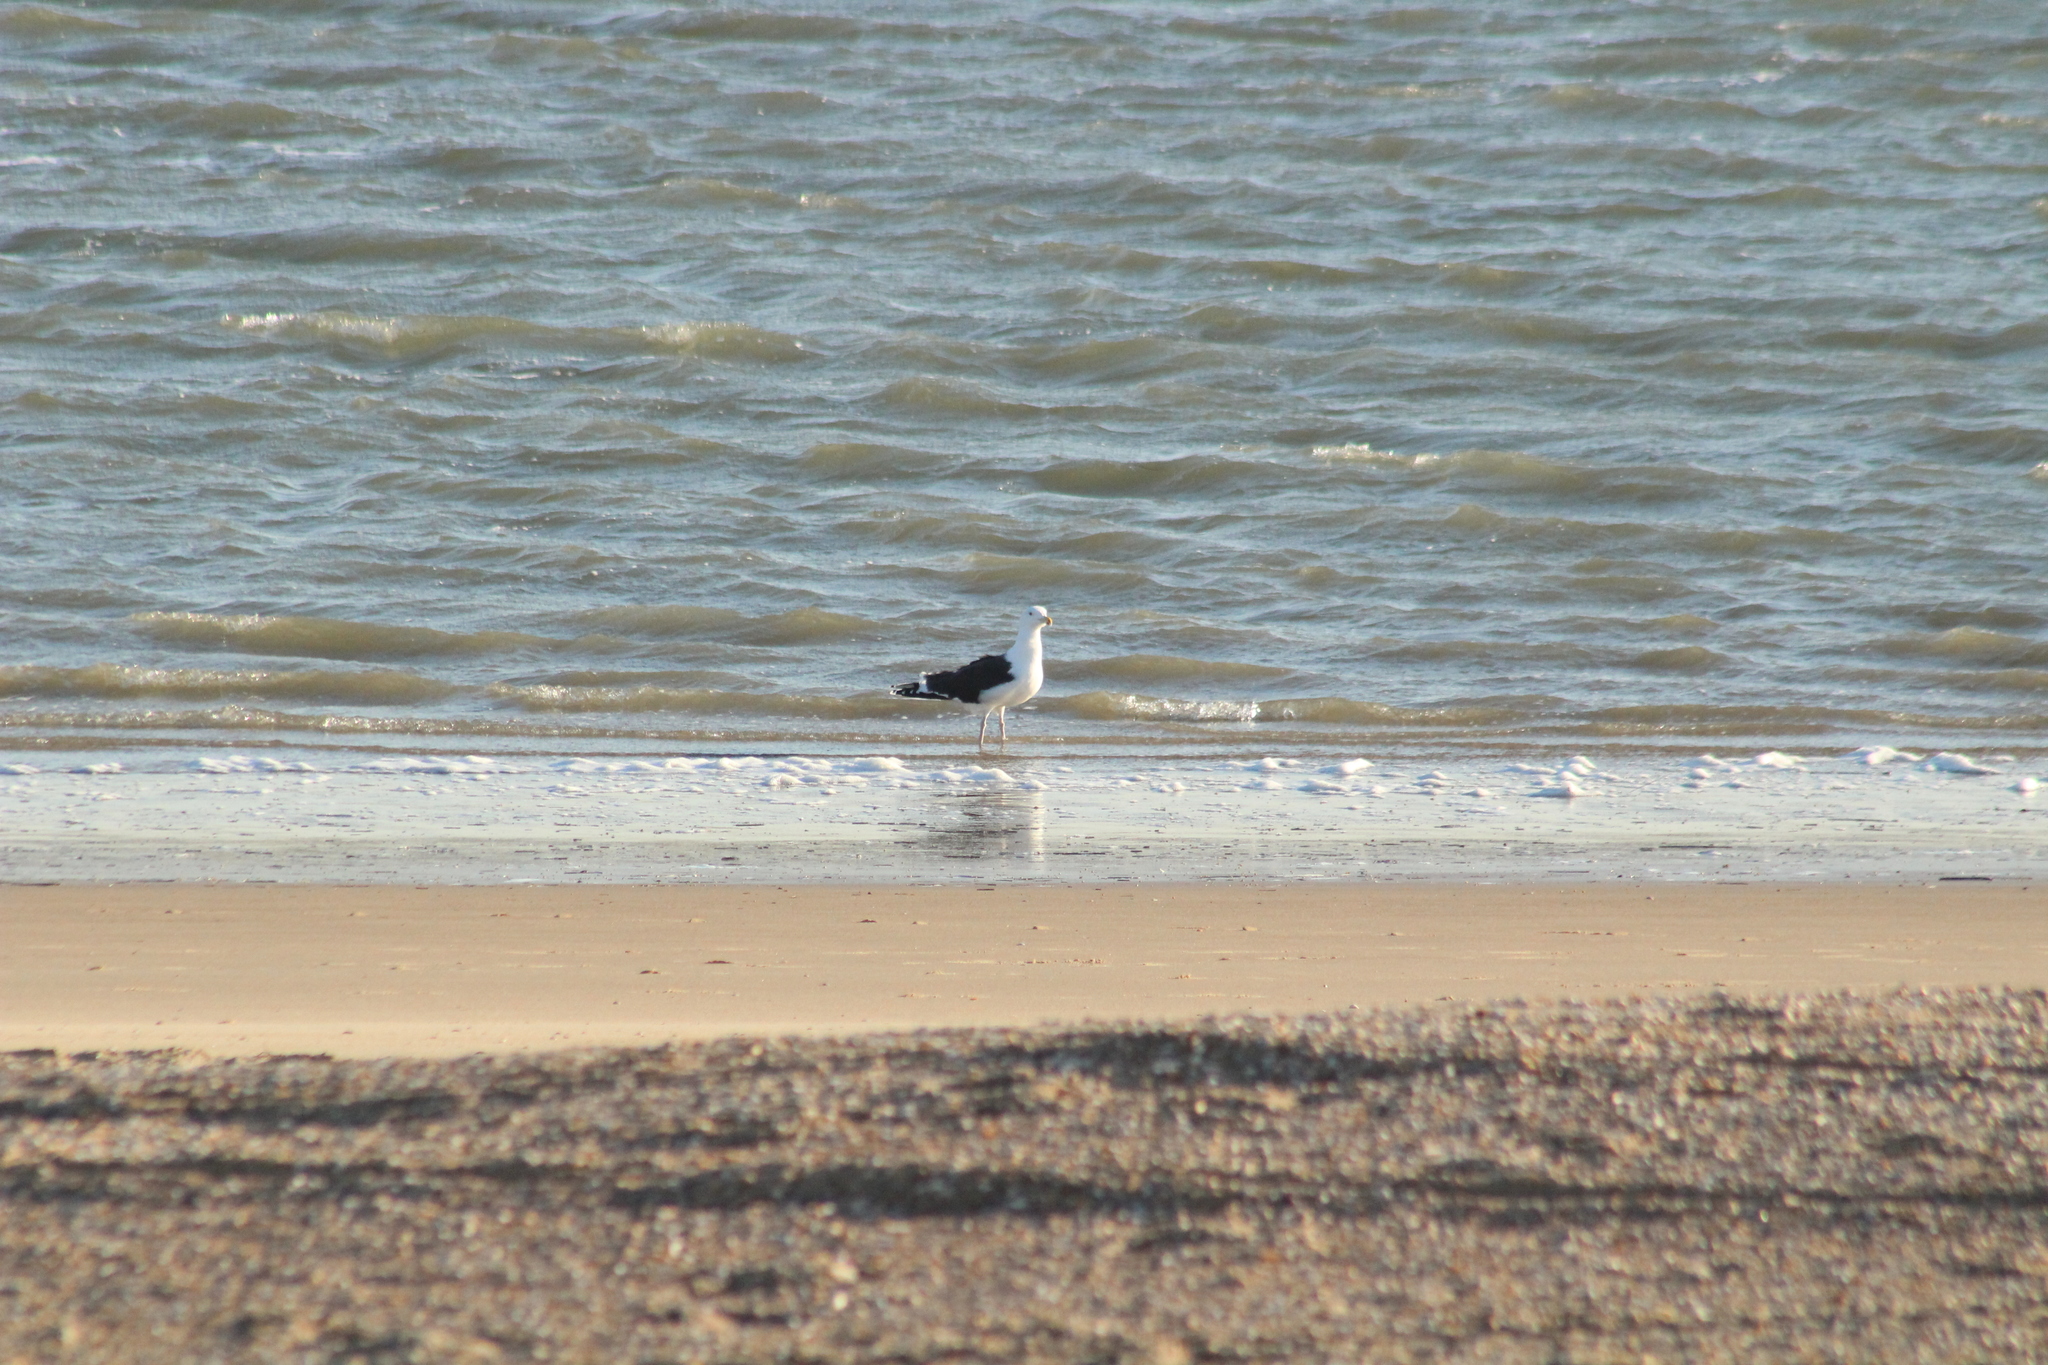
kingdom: Animalia
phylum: Chordata
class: Aves
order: Charadriiformes
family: Laridae
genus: Larus
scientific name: Larus marinus
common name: Great black-backed gull
